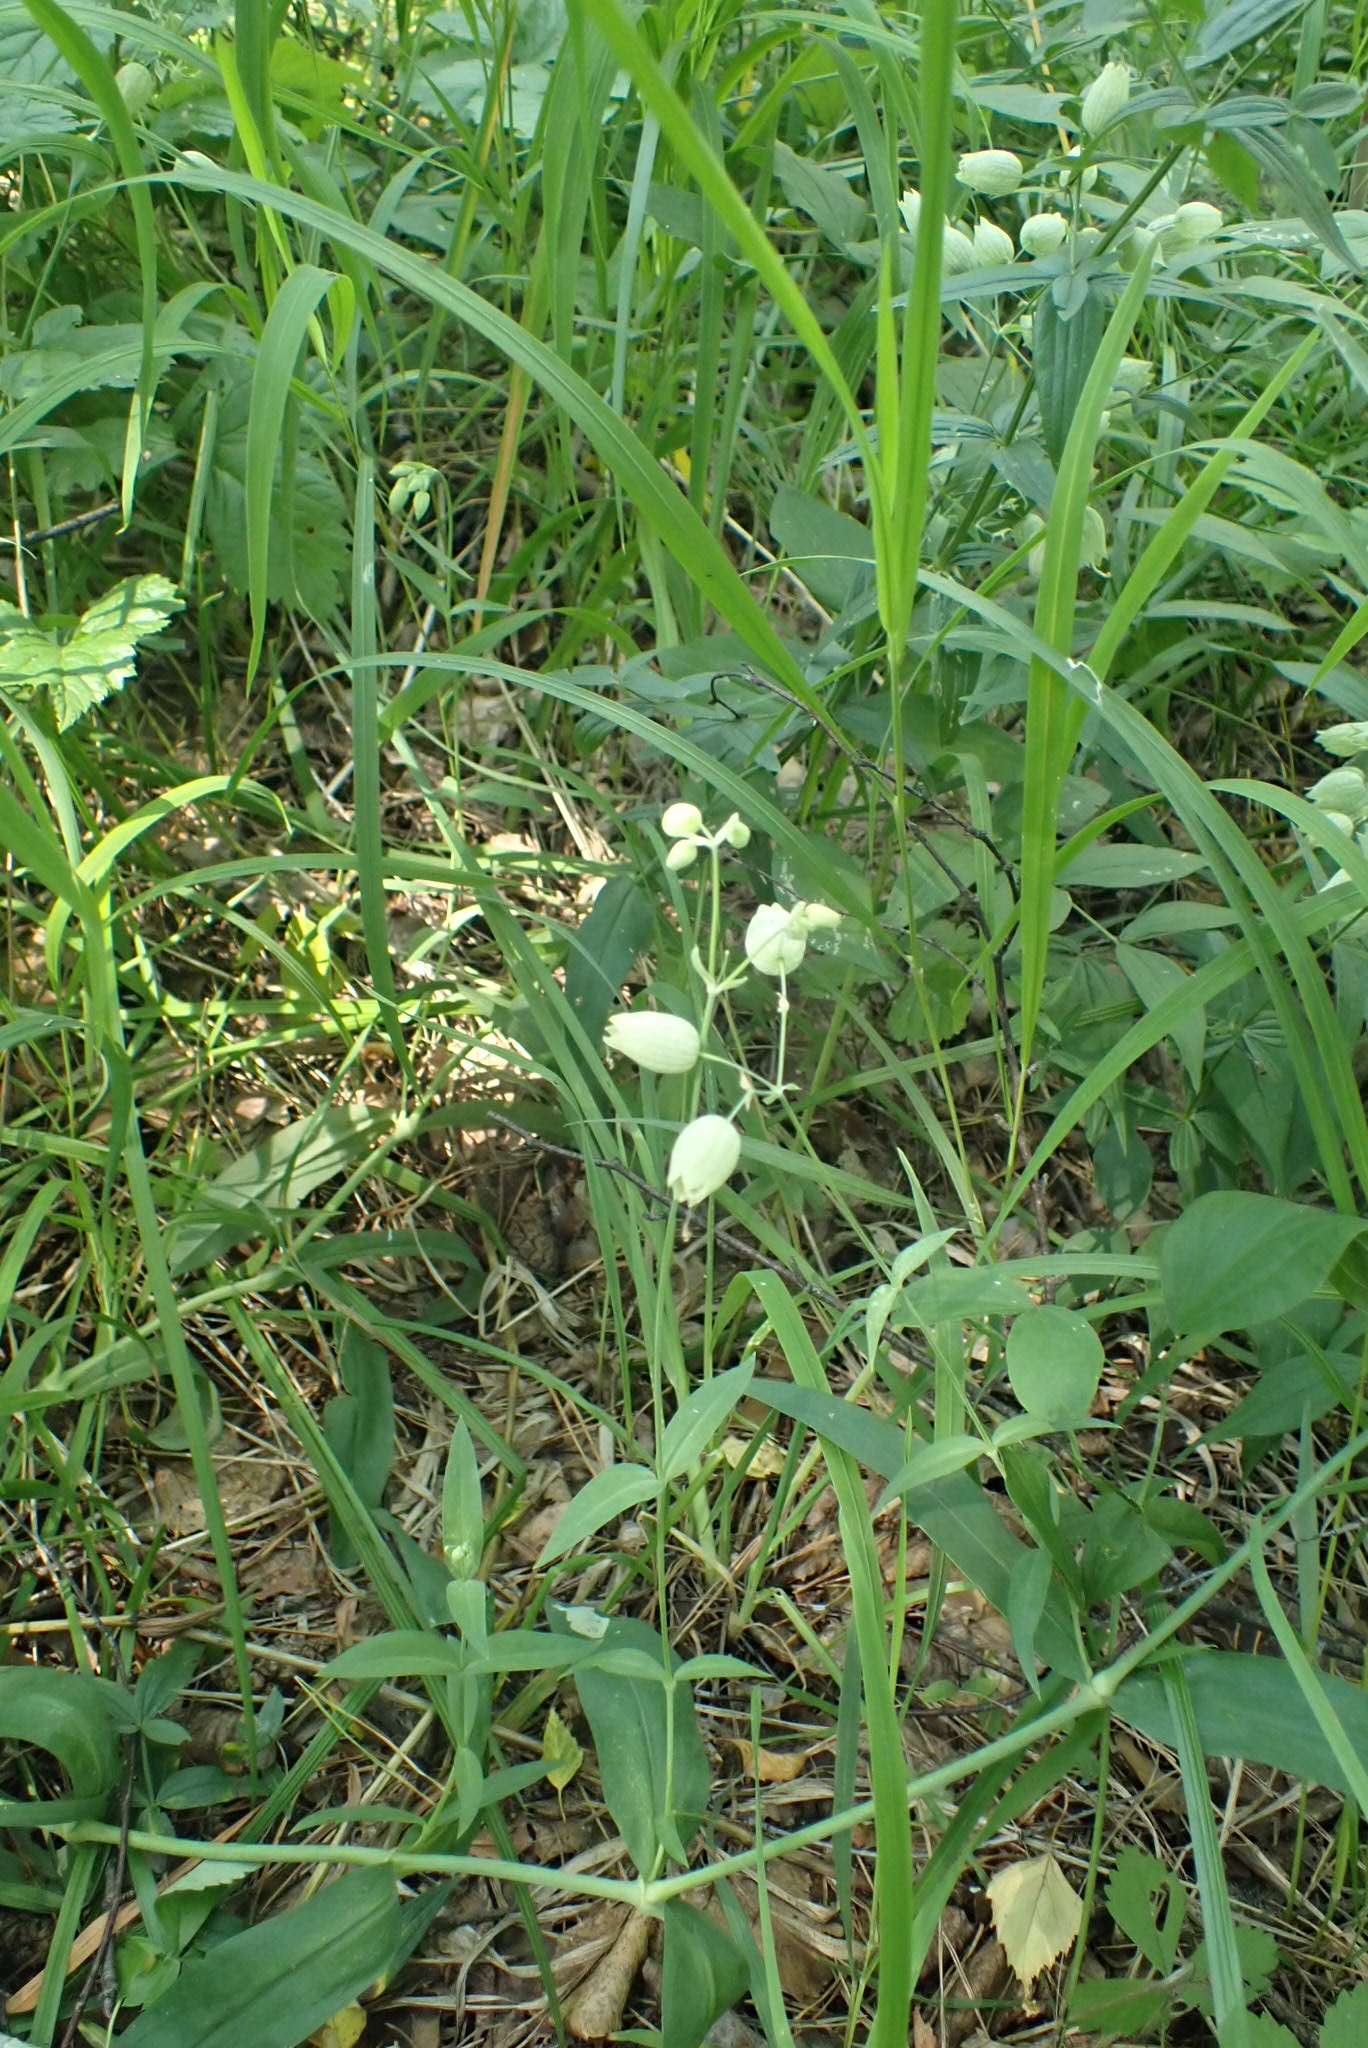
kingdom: Plantae
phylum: Tracheophyta
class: Magnoliopsida
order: Caryophyllales
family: Caryophyllaceae
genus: Silene
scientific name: Silene vulgaris
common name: Bladder campion
